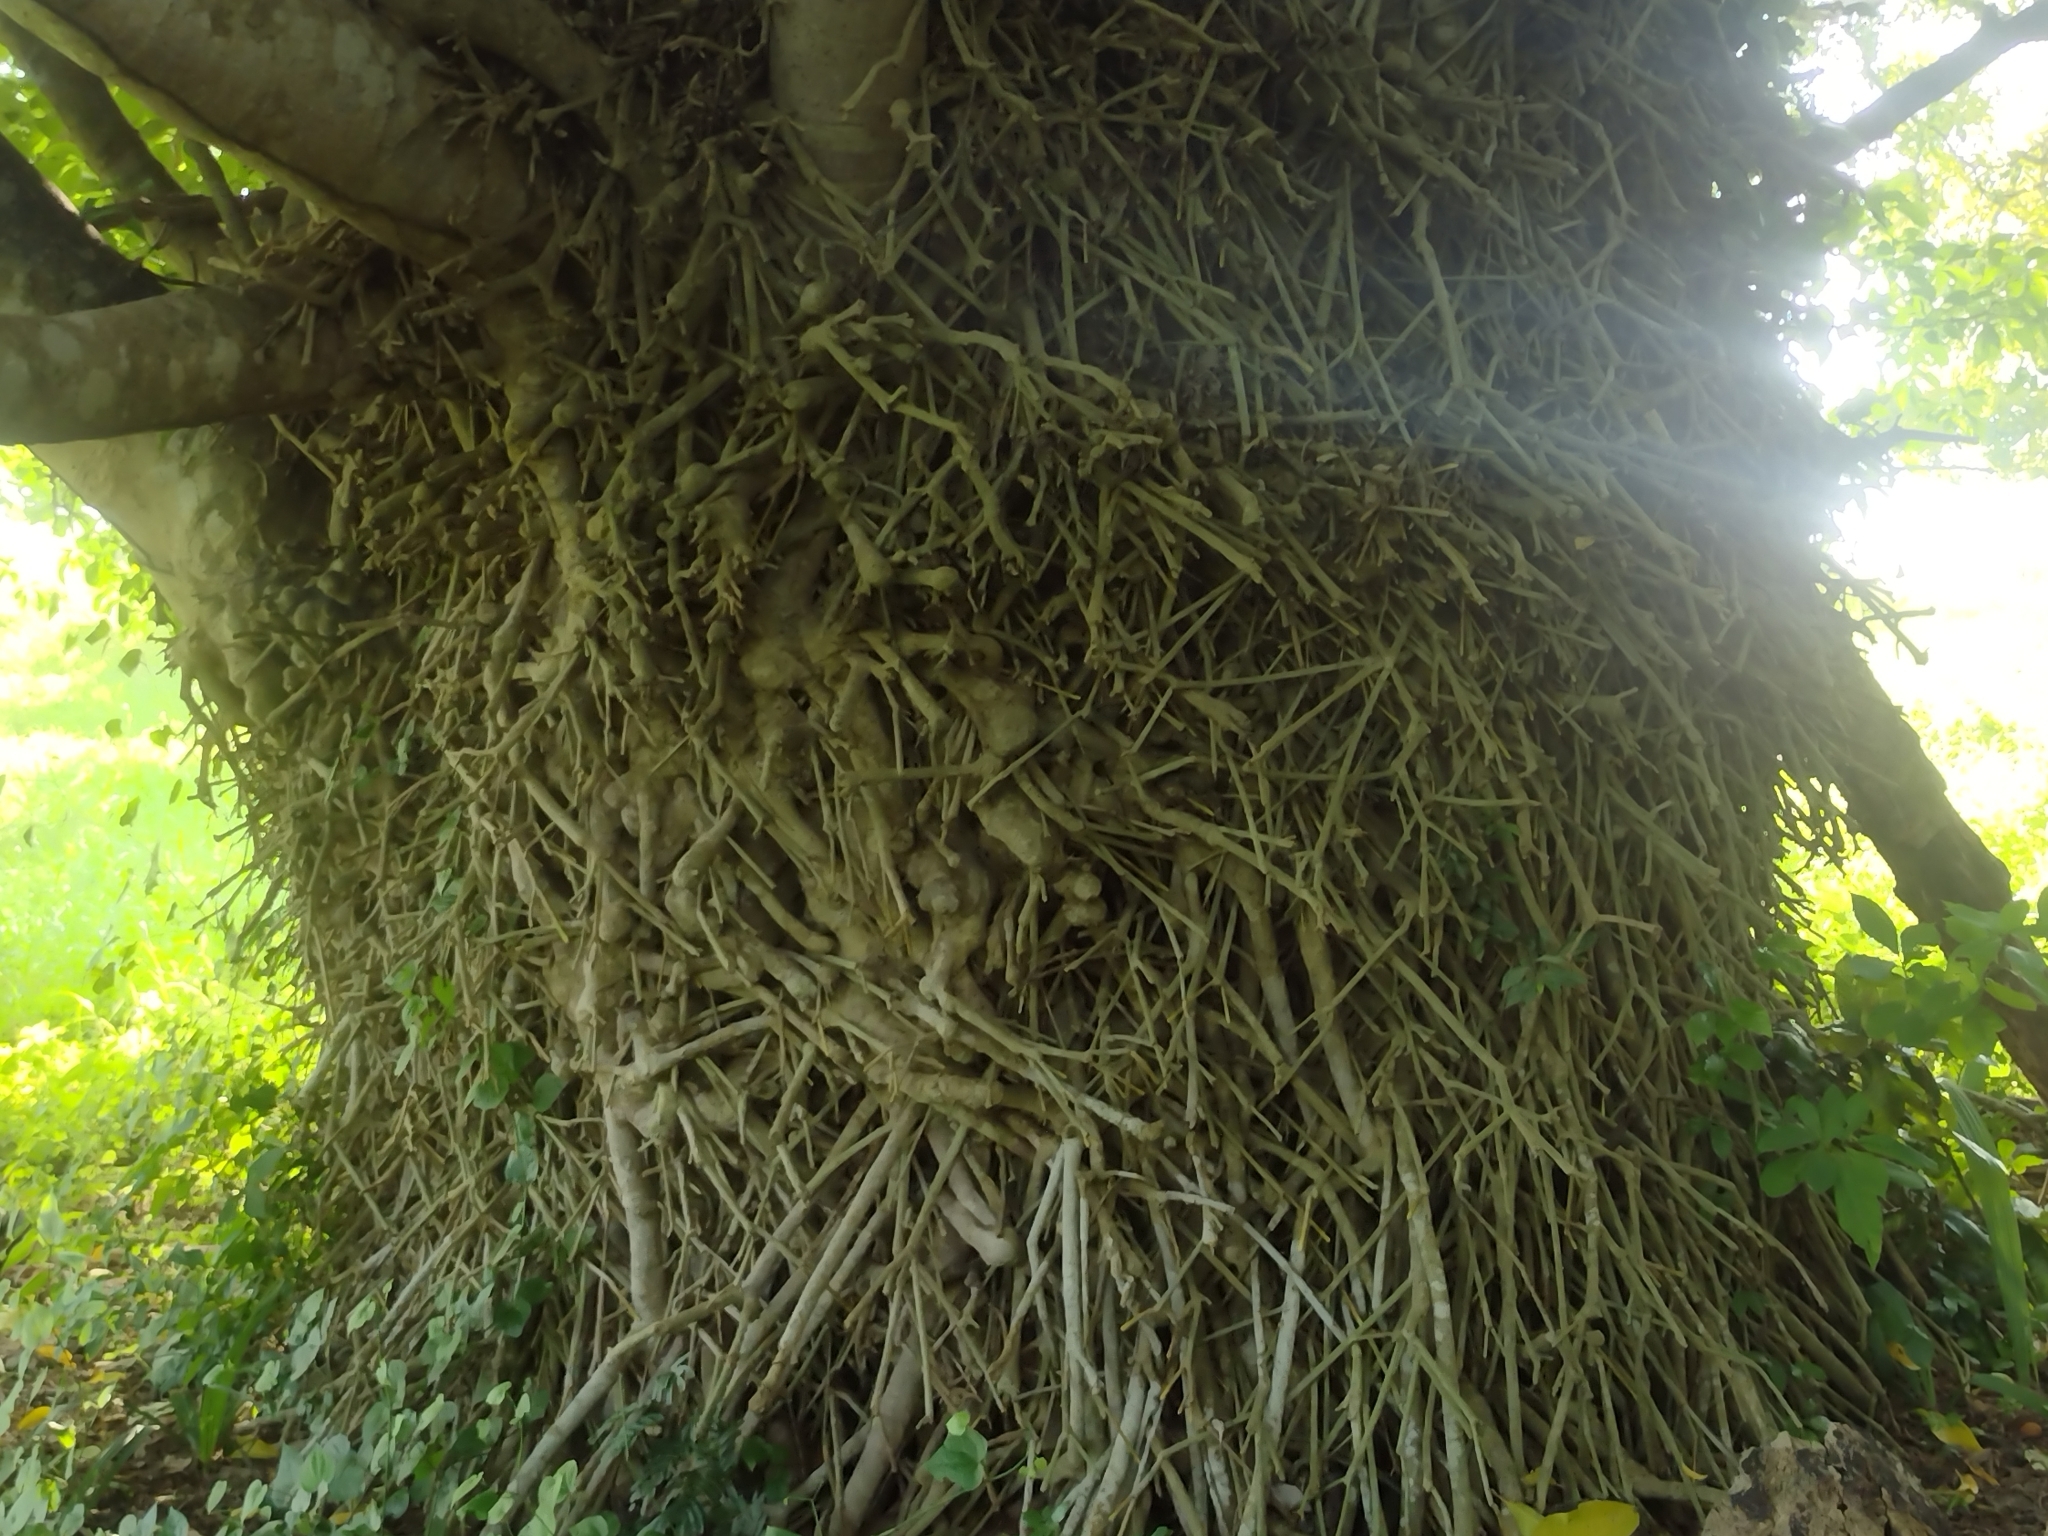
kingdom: Plantae
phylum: Tracheophyta
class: Magnoliopsida
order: Lamiales
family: Acanthaceae
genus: Bravaisia
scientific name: Bravaisia integerrima
